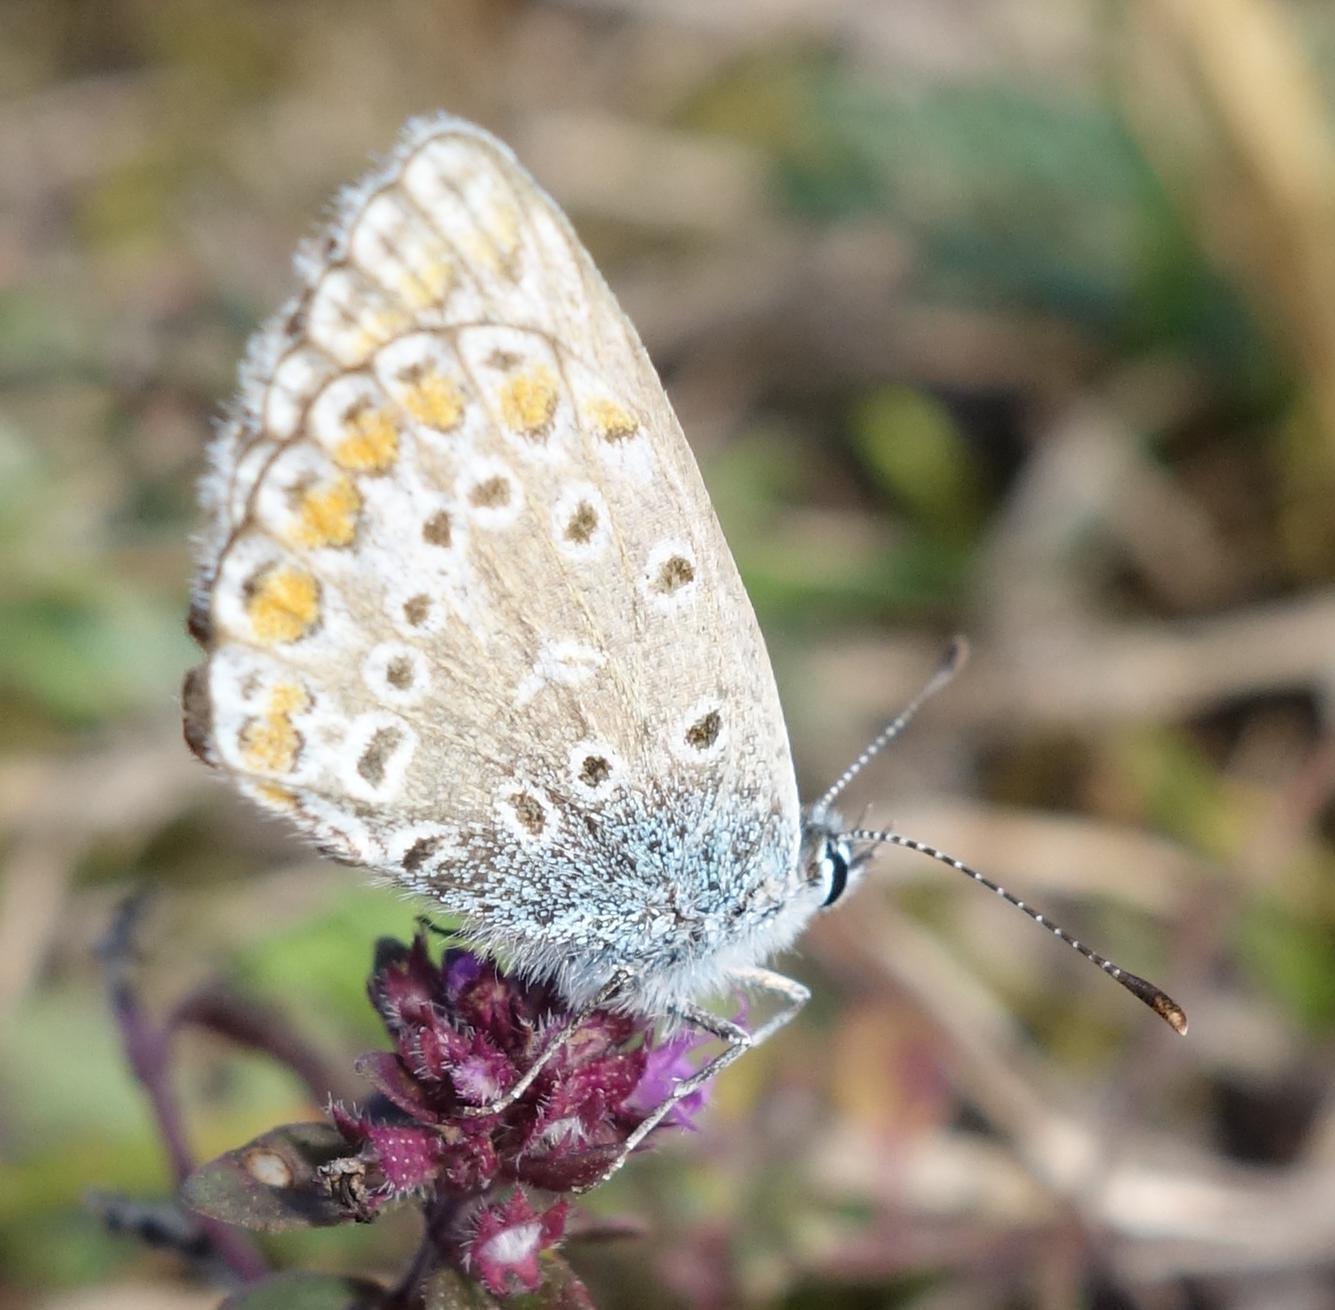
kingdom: Animalia
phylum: Arthropoda
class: Insecta
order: Lepidoptera
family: Lycaenidae
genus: Polyommatus
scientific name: Polyommatus icarus
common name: Common blue
